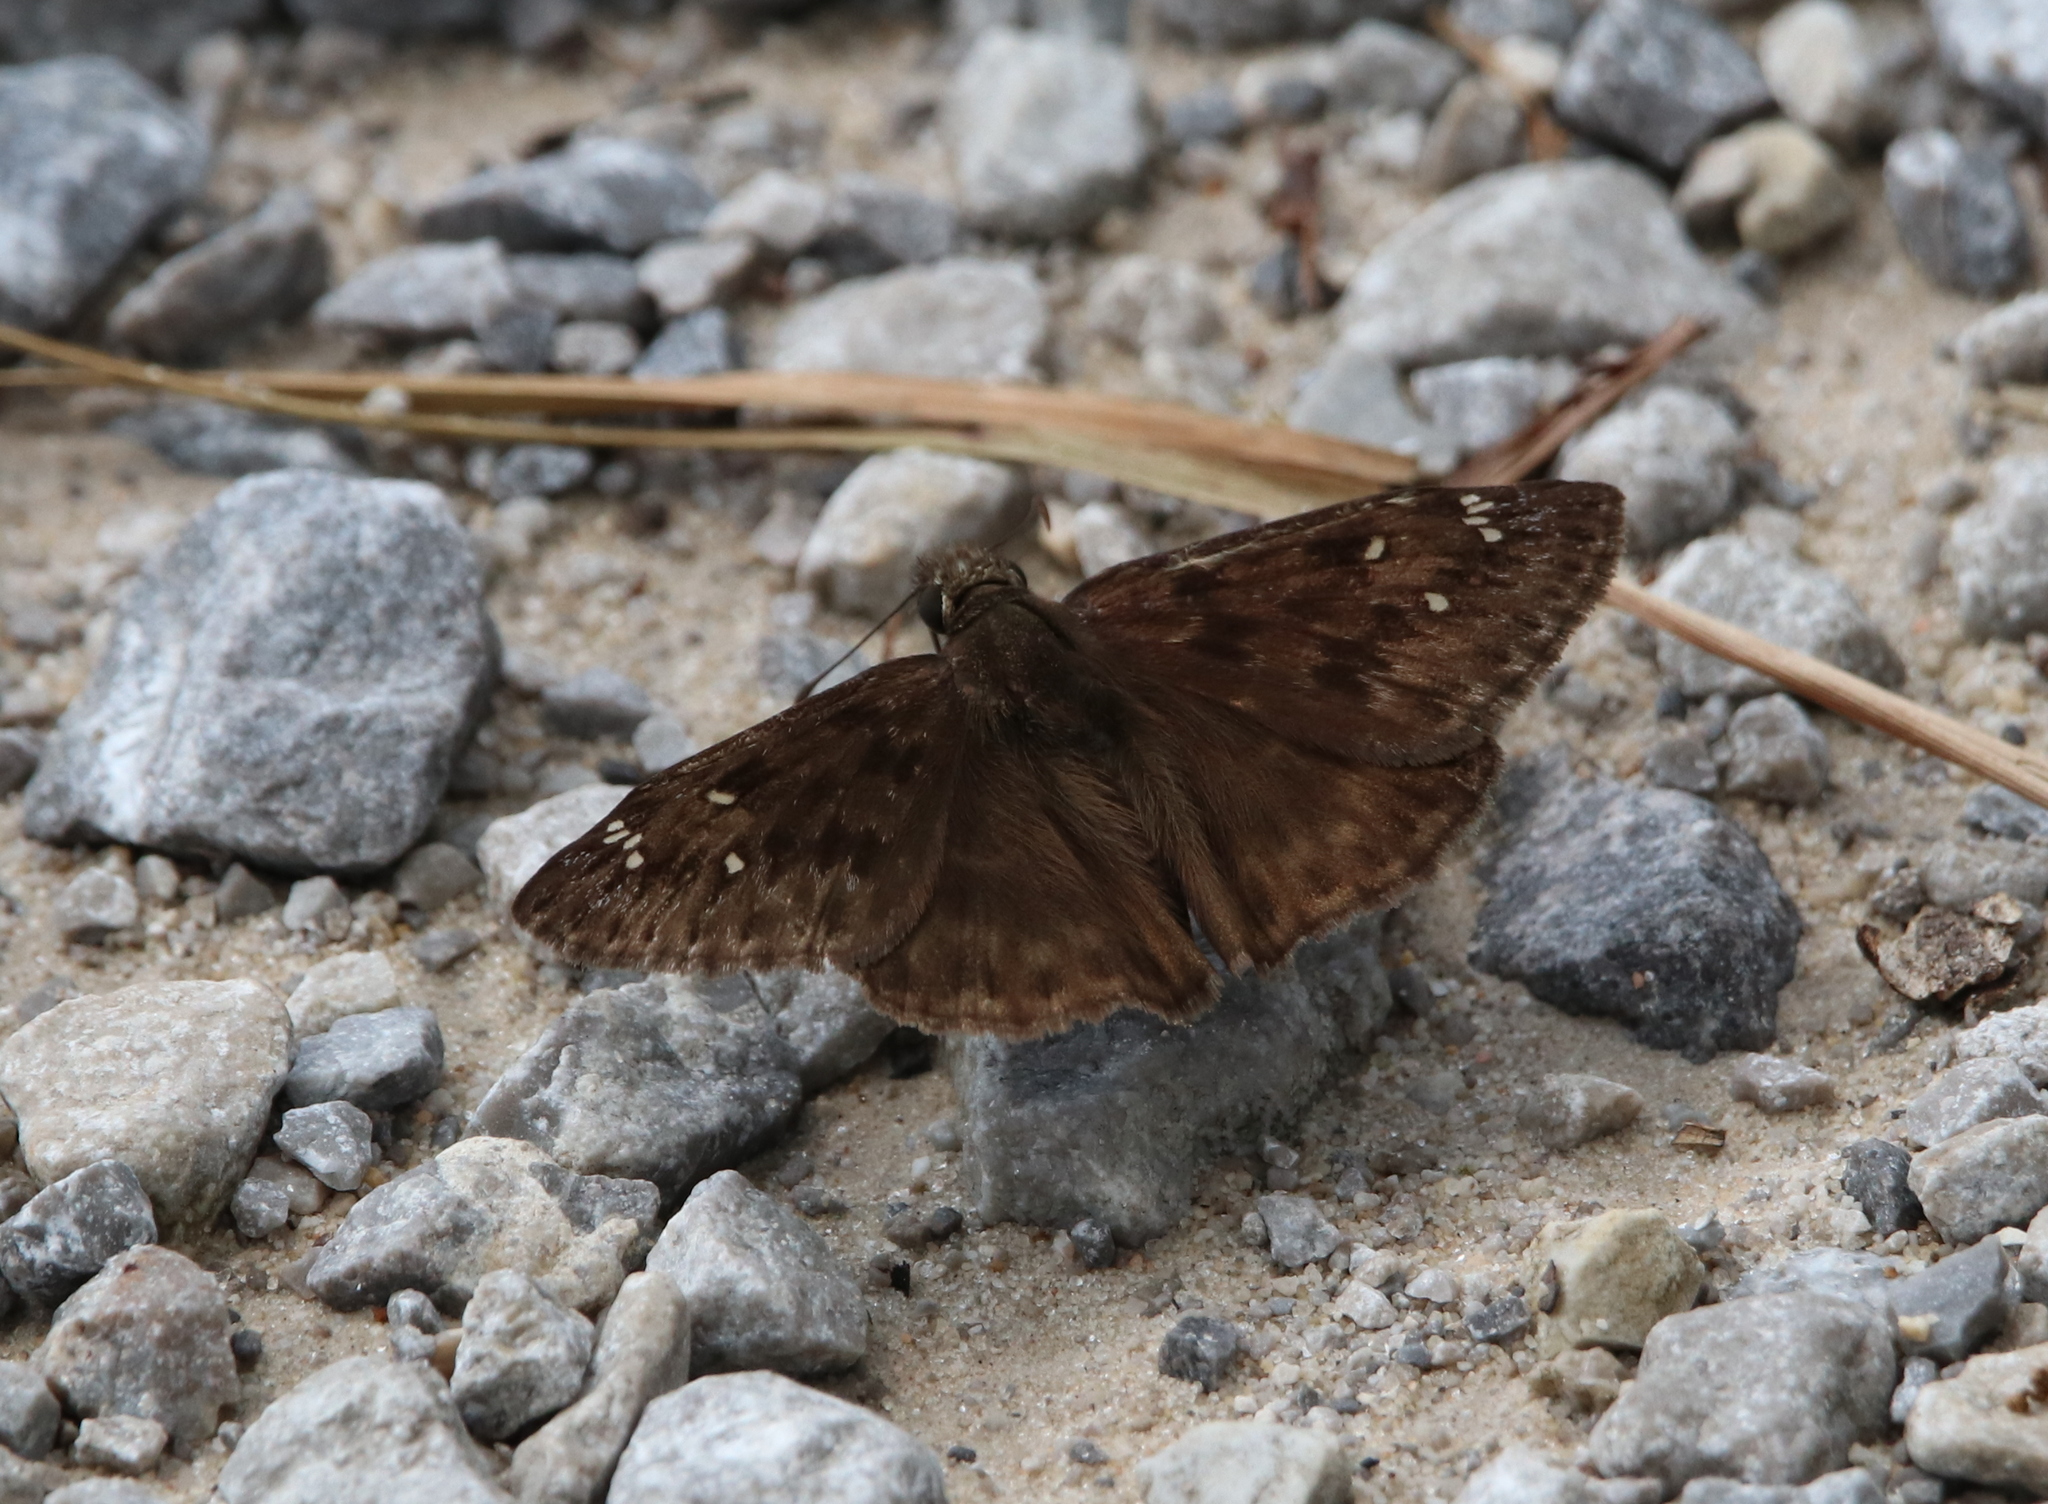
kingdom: Animalia
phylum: Arthropoda
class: Insecta
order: Lepidoptera
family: Hesperiidae
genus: Erynnis
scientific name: Erynnis horatius
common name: Horace's duskywing
